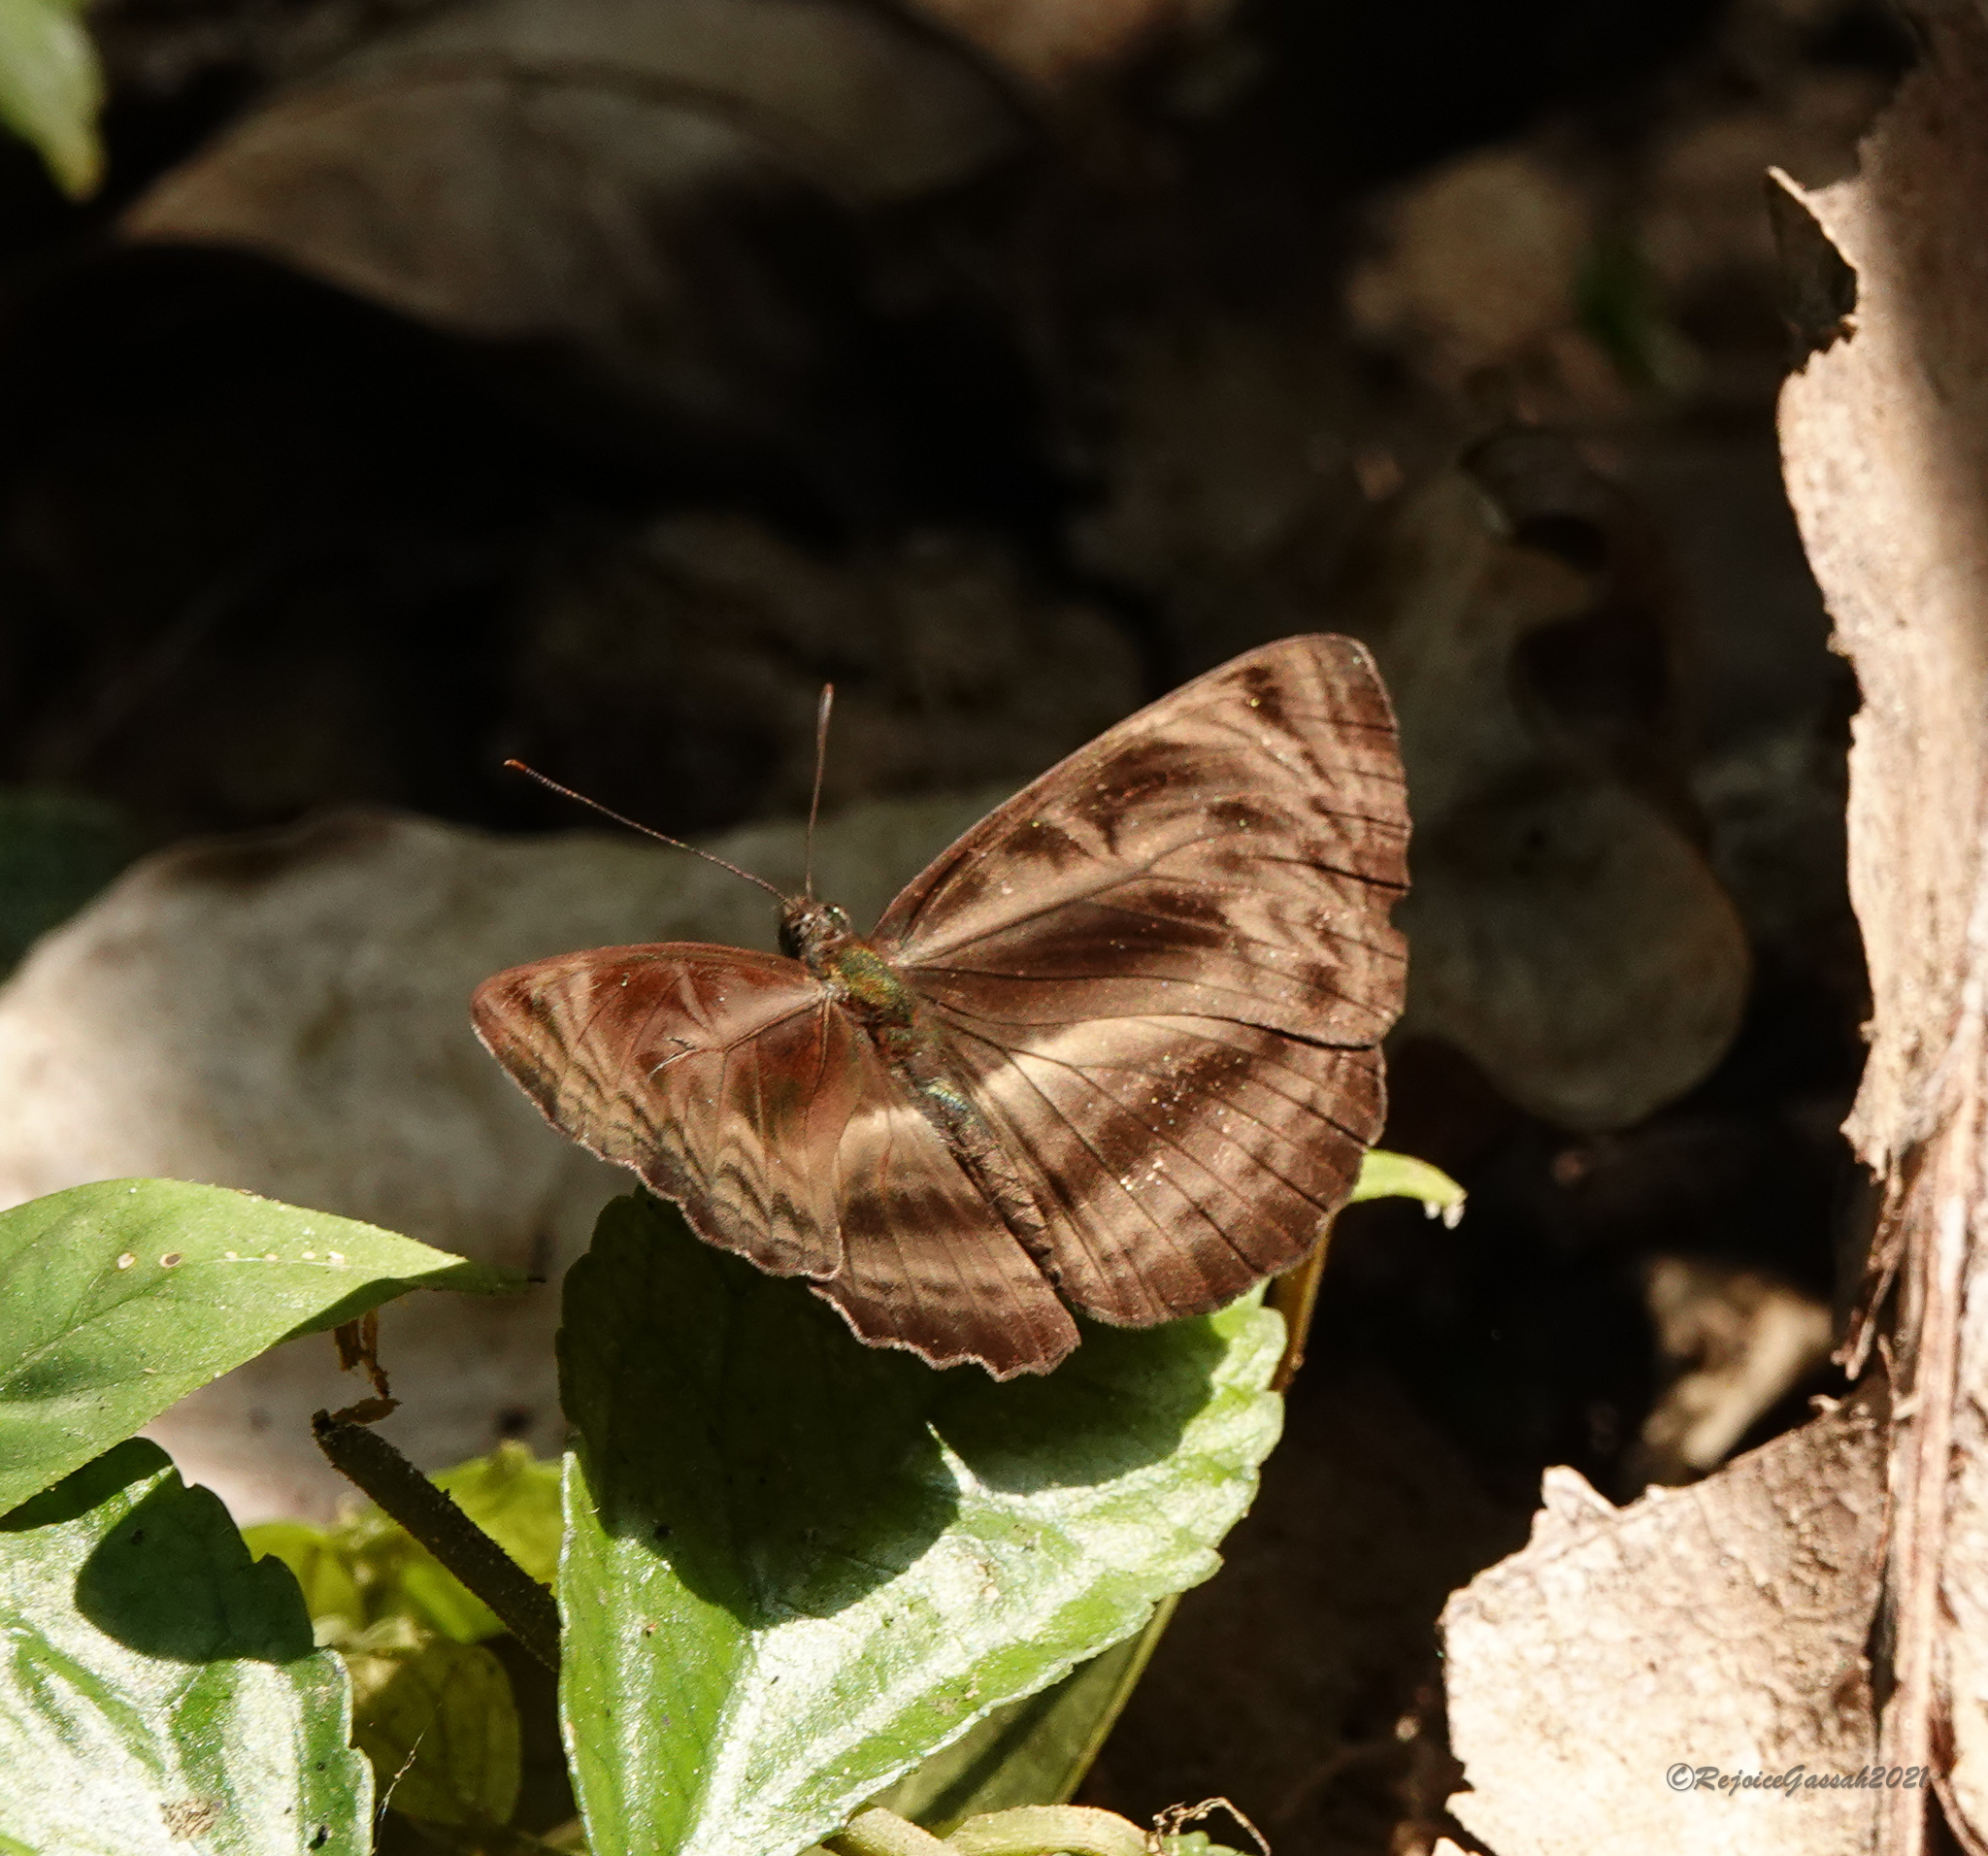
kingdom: Animalia
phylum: Arthropoda
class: Insecta
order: Lepidoptera
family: Nymphalidae
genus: Neptis
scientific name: Neptis harita
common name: Chocolate sailer
